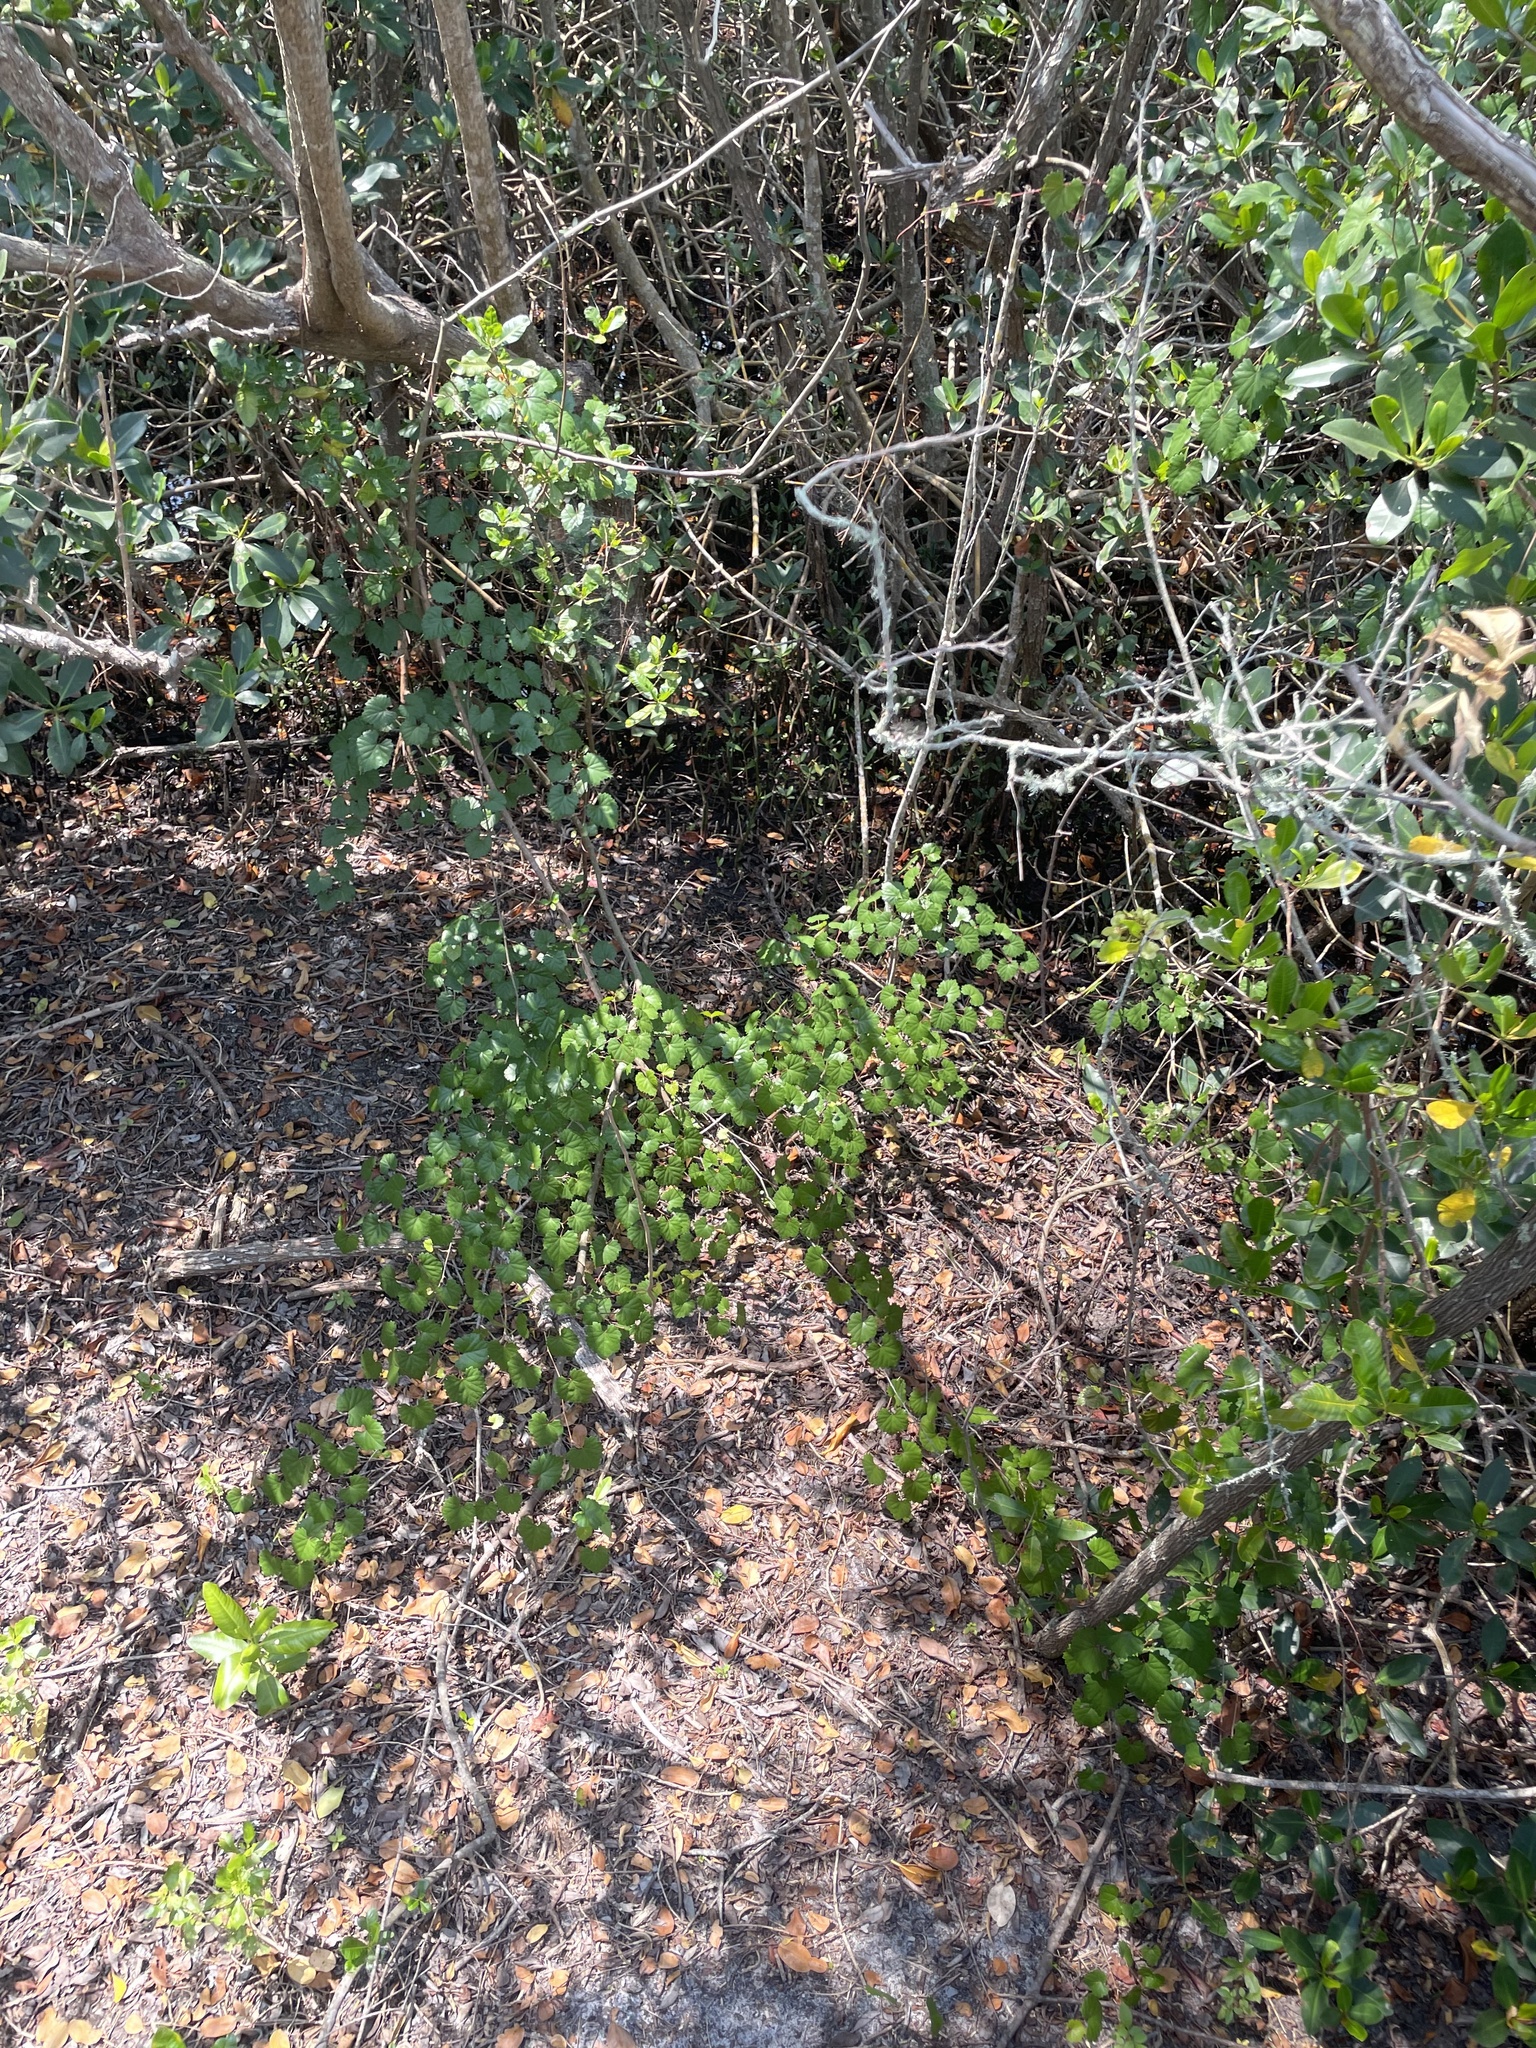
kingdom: Plantae
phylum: Tracheophyta
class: Magnoliopsida
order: Vitales
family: Vitaceae
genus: Vitis
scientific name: Vitis rotundifolia
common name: Muscadine grape
